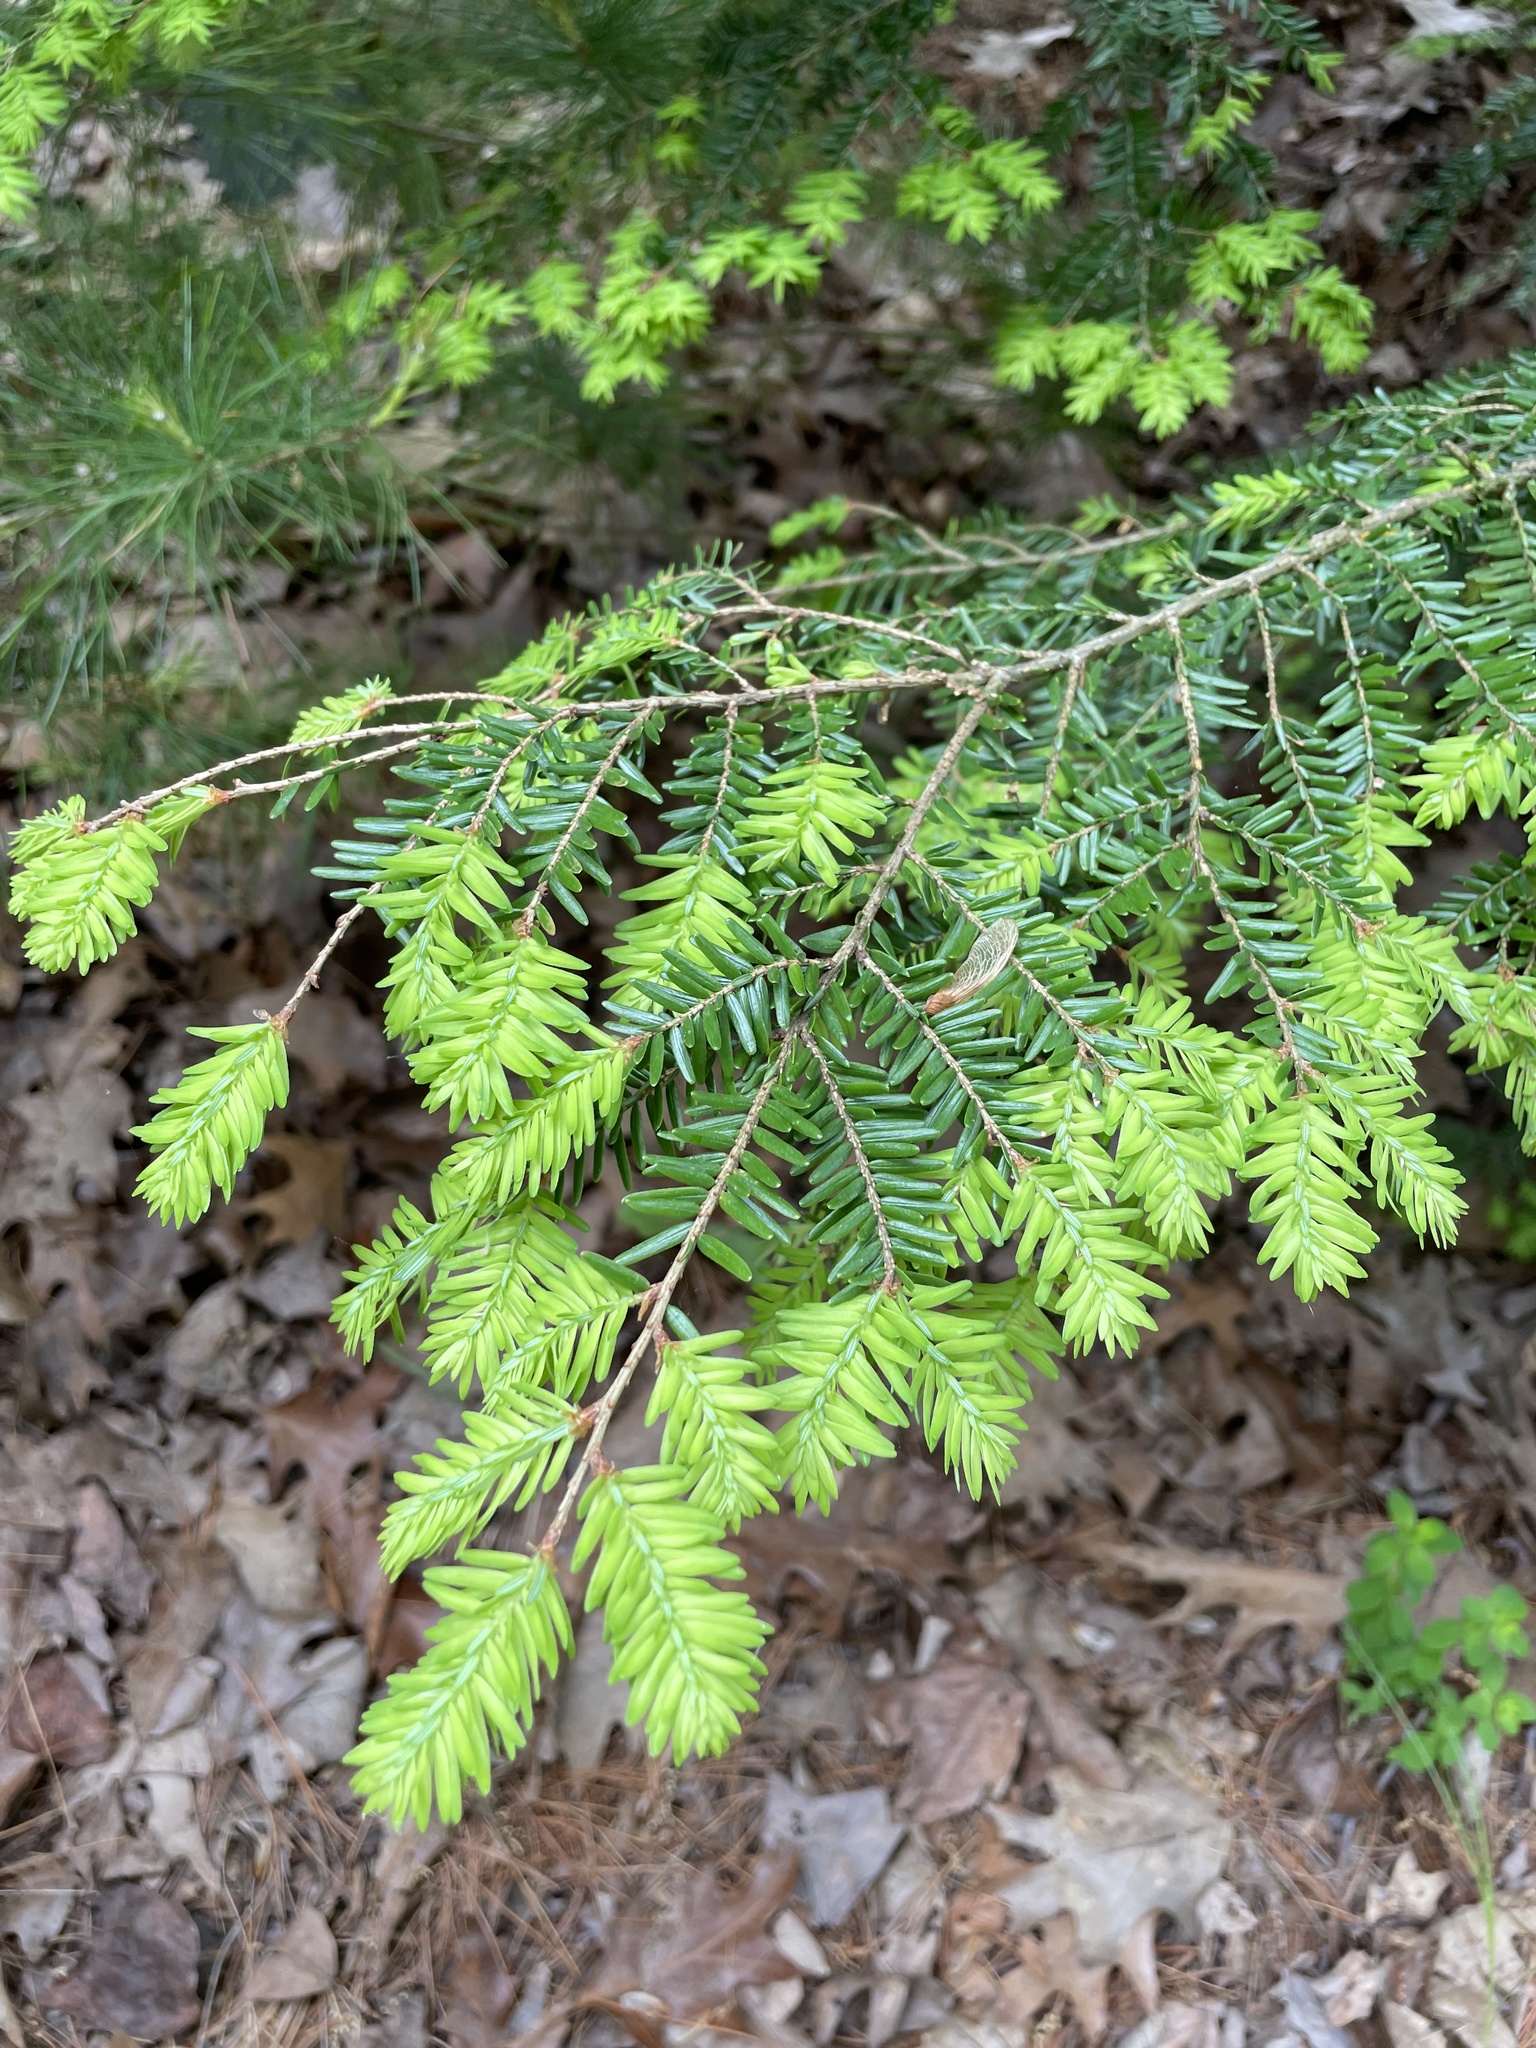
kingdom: Plantae
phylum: Tracheophyta
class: Pinopsida
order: Pinales
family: Pinaceae
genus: Tsuga
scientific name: Tsuga canadensis
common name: Eastern hemlock
